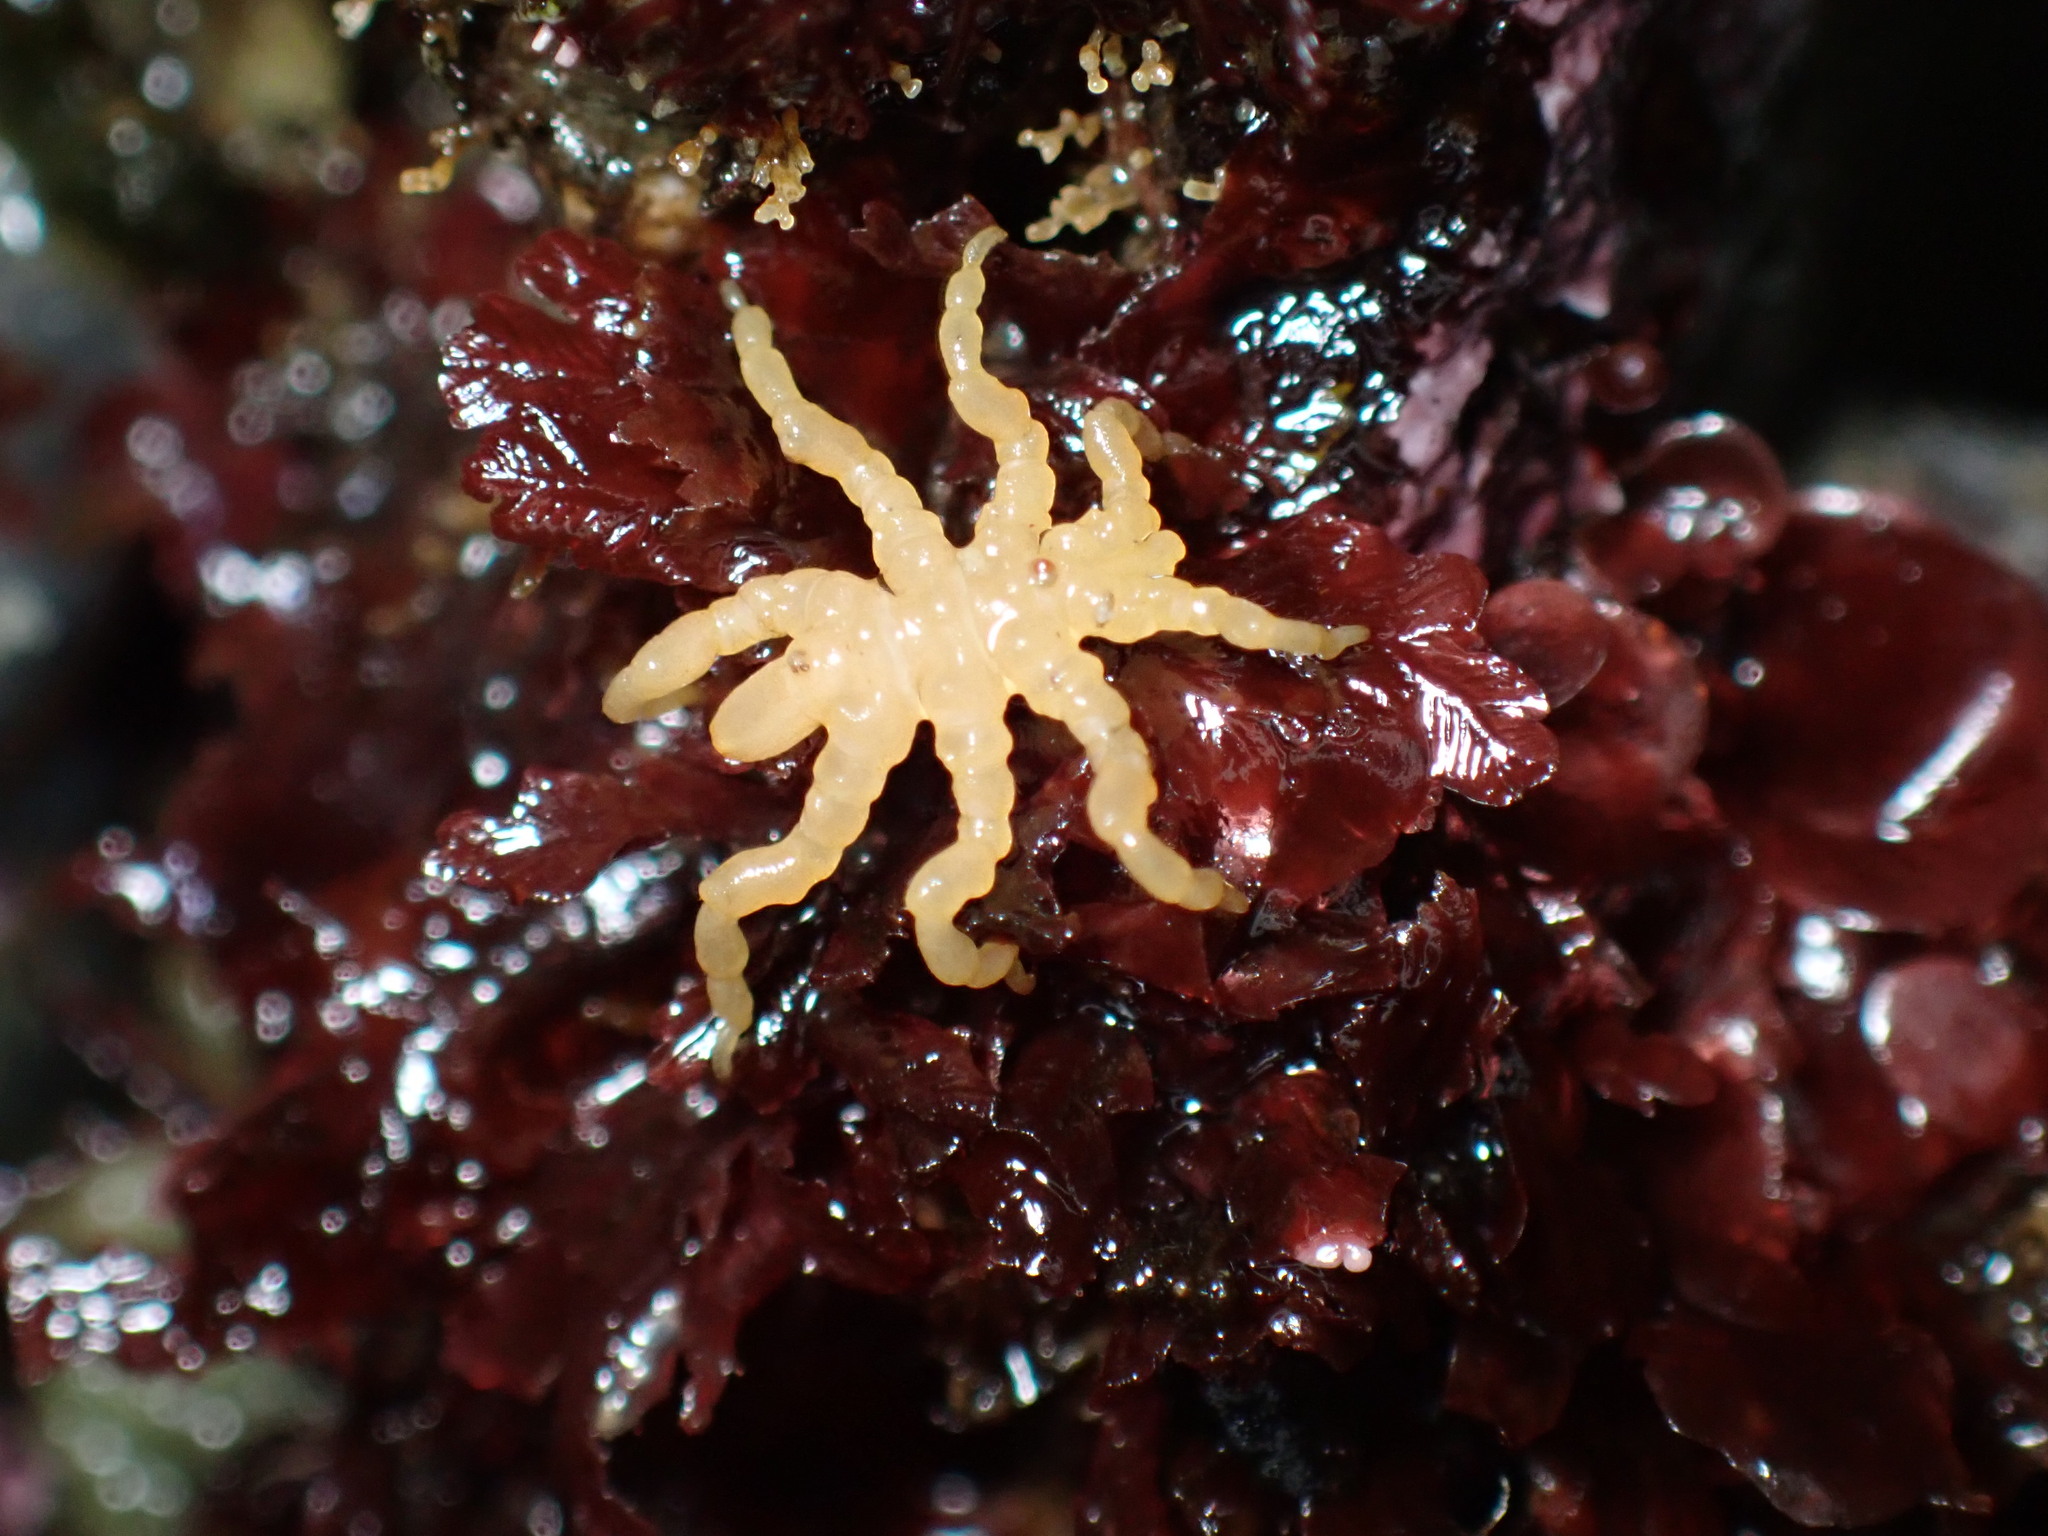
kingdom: Animalia
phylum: Arthropoda
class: Pycnogonida
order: Pantopoda
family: Pycnogonidae
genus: Pycnogonum
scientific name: Pycnogonum stearnsi
